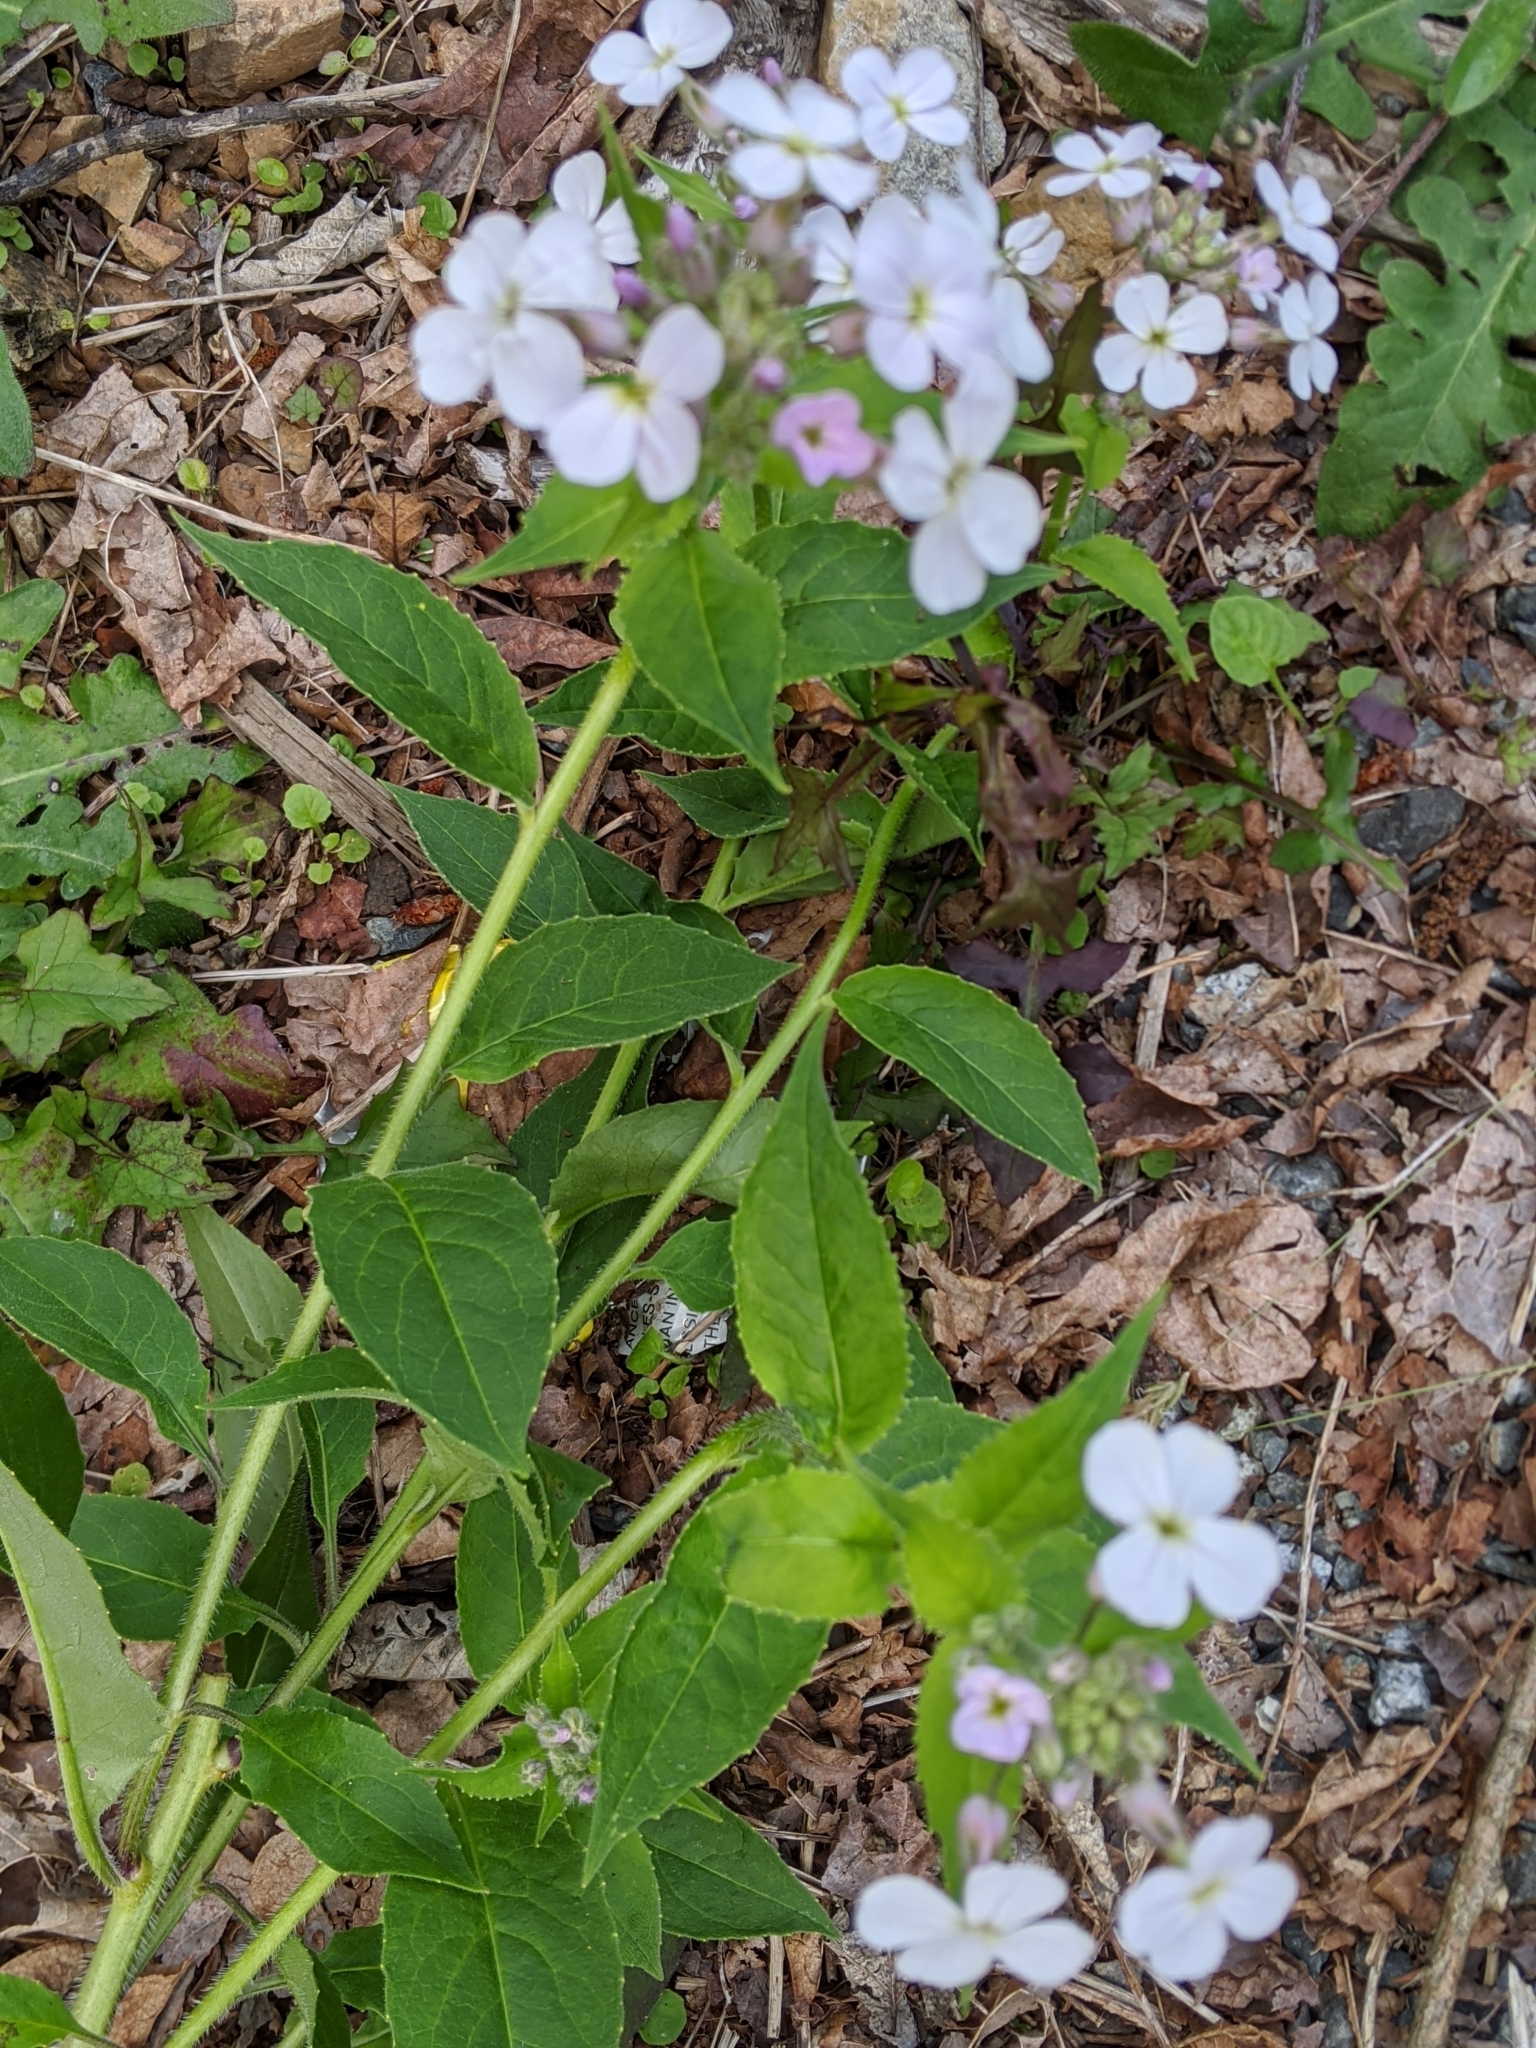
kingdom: Plantae
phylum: Tracheophyta
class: Magnoliopsida
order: Brassicales
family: Brassicaceae
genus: Hesperis
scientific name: Hesperis matronalis
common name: Dame's-violet
